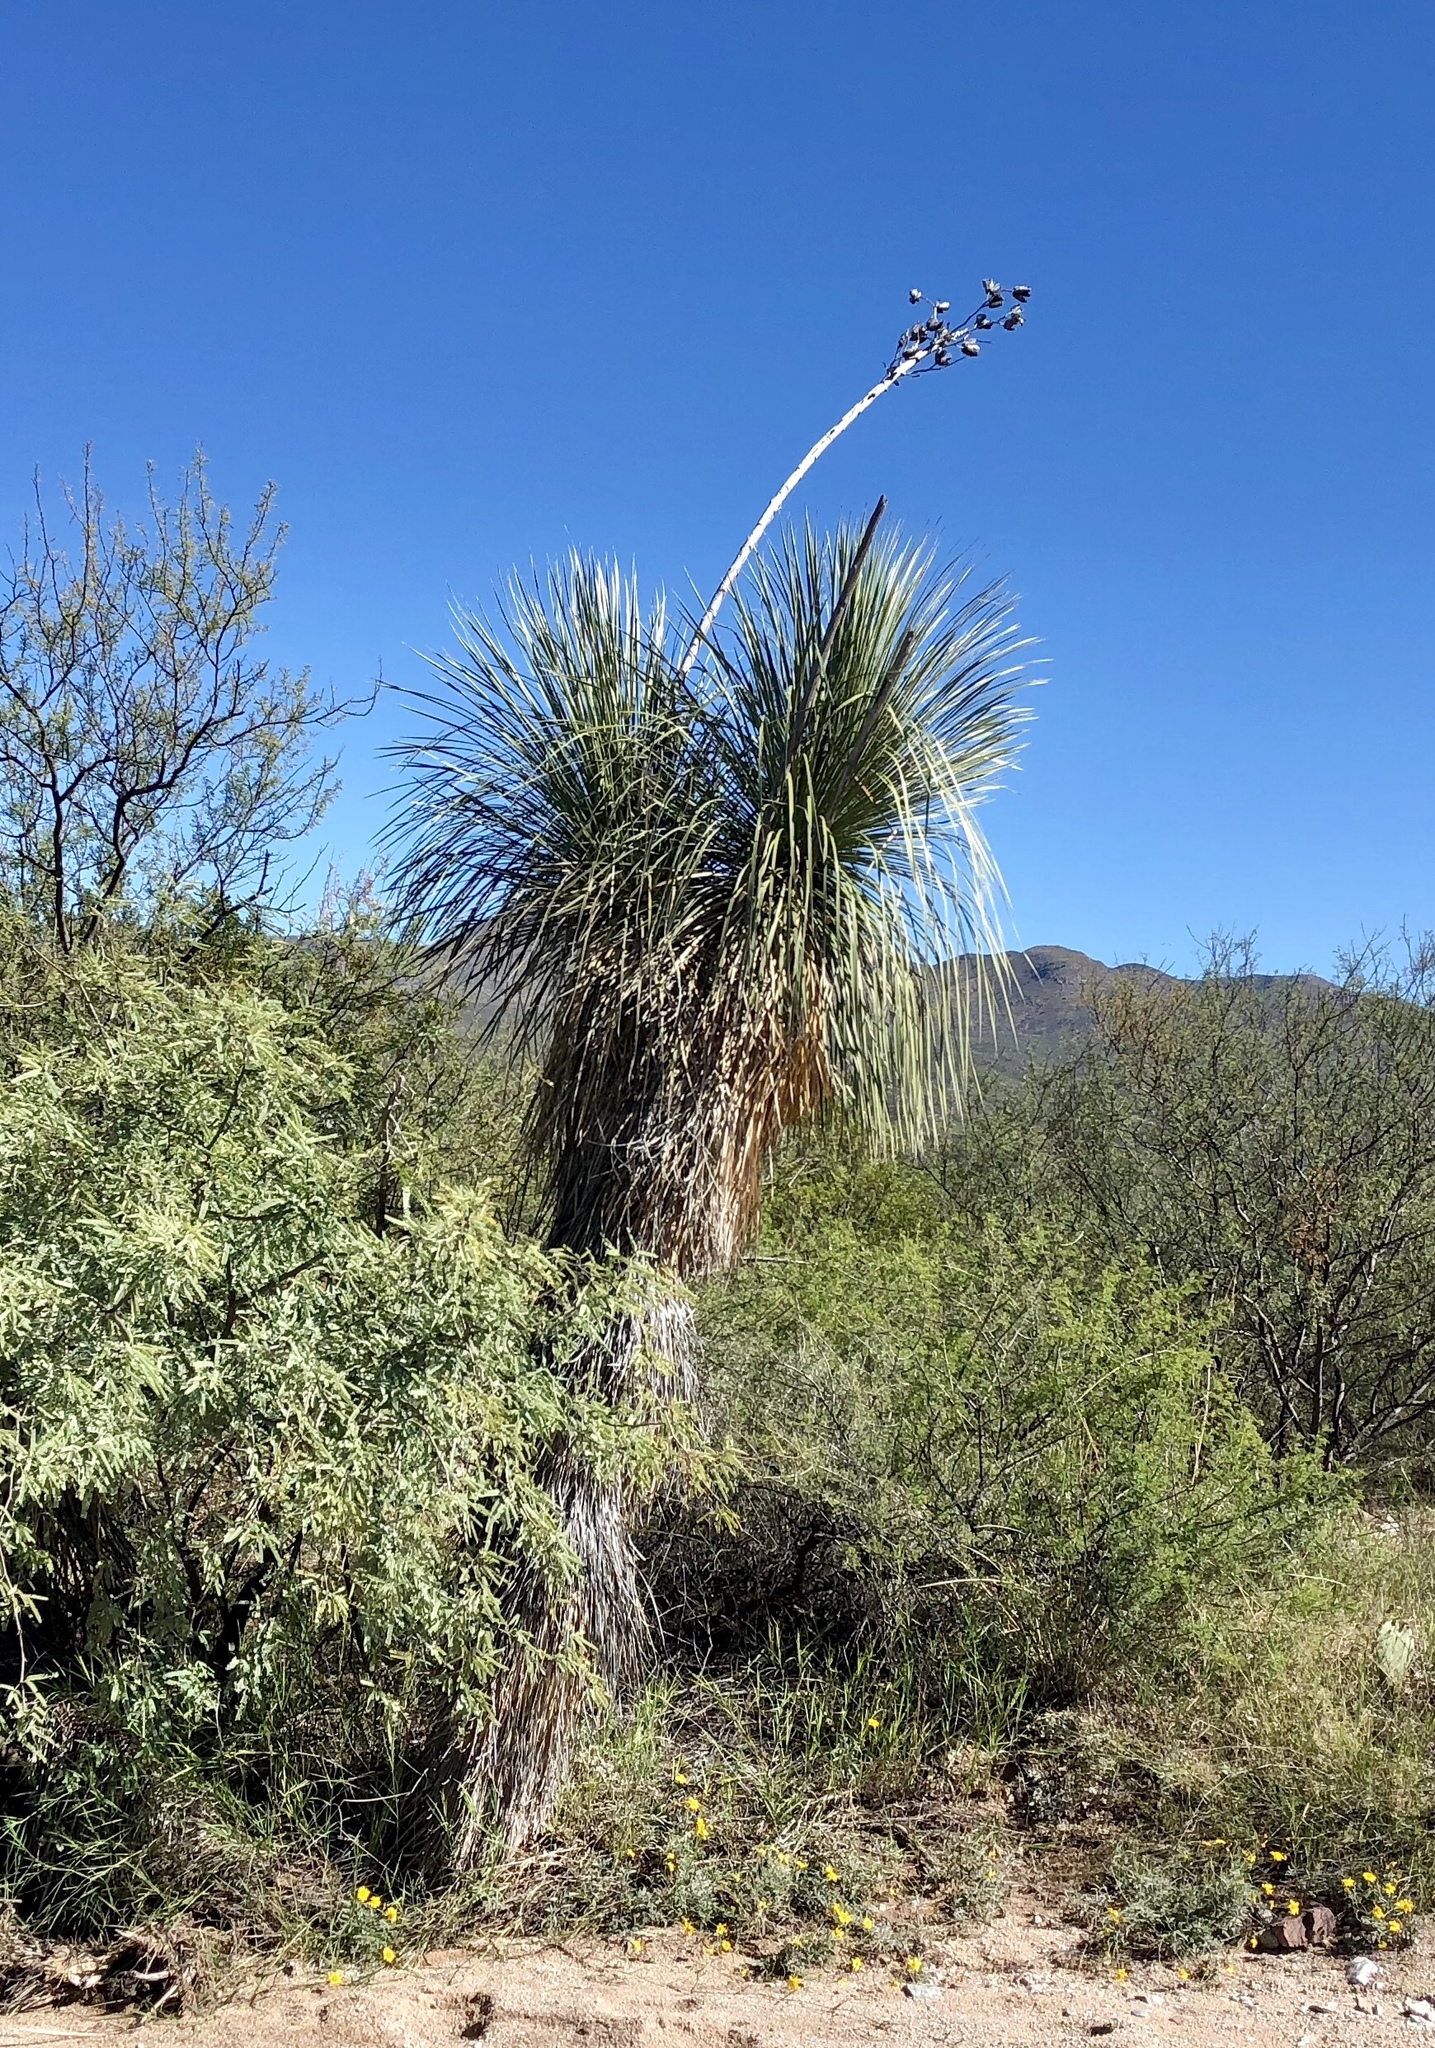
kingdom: Plantae
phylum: Tracheophyta
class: Liliopsida
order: Asparagales
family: Asparagaceae
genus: Yucca
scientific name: Yucca elata
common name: Palmella
